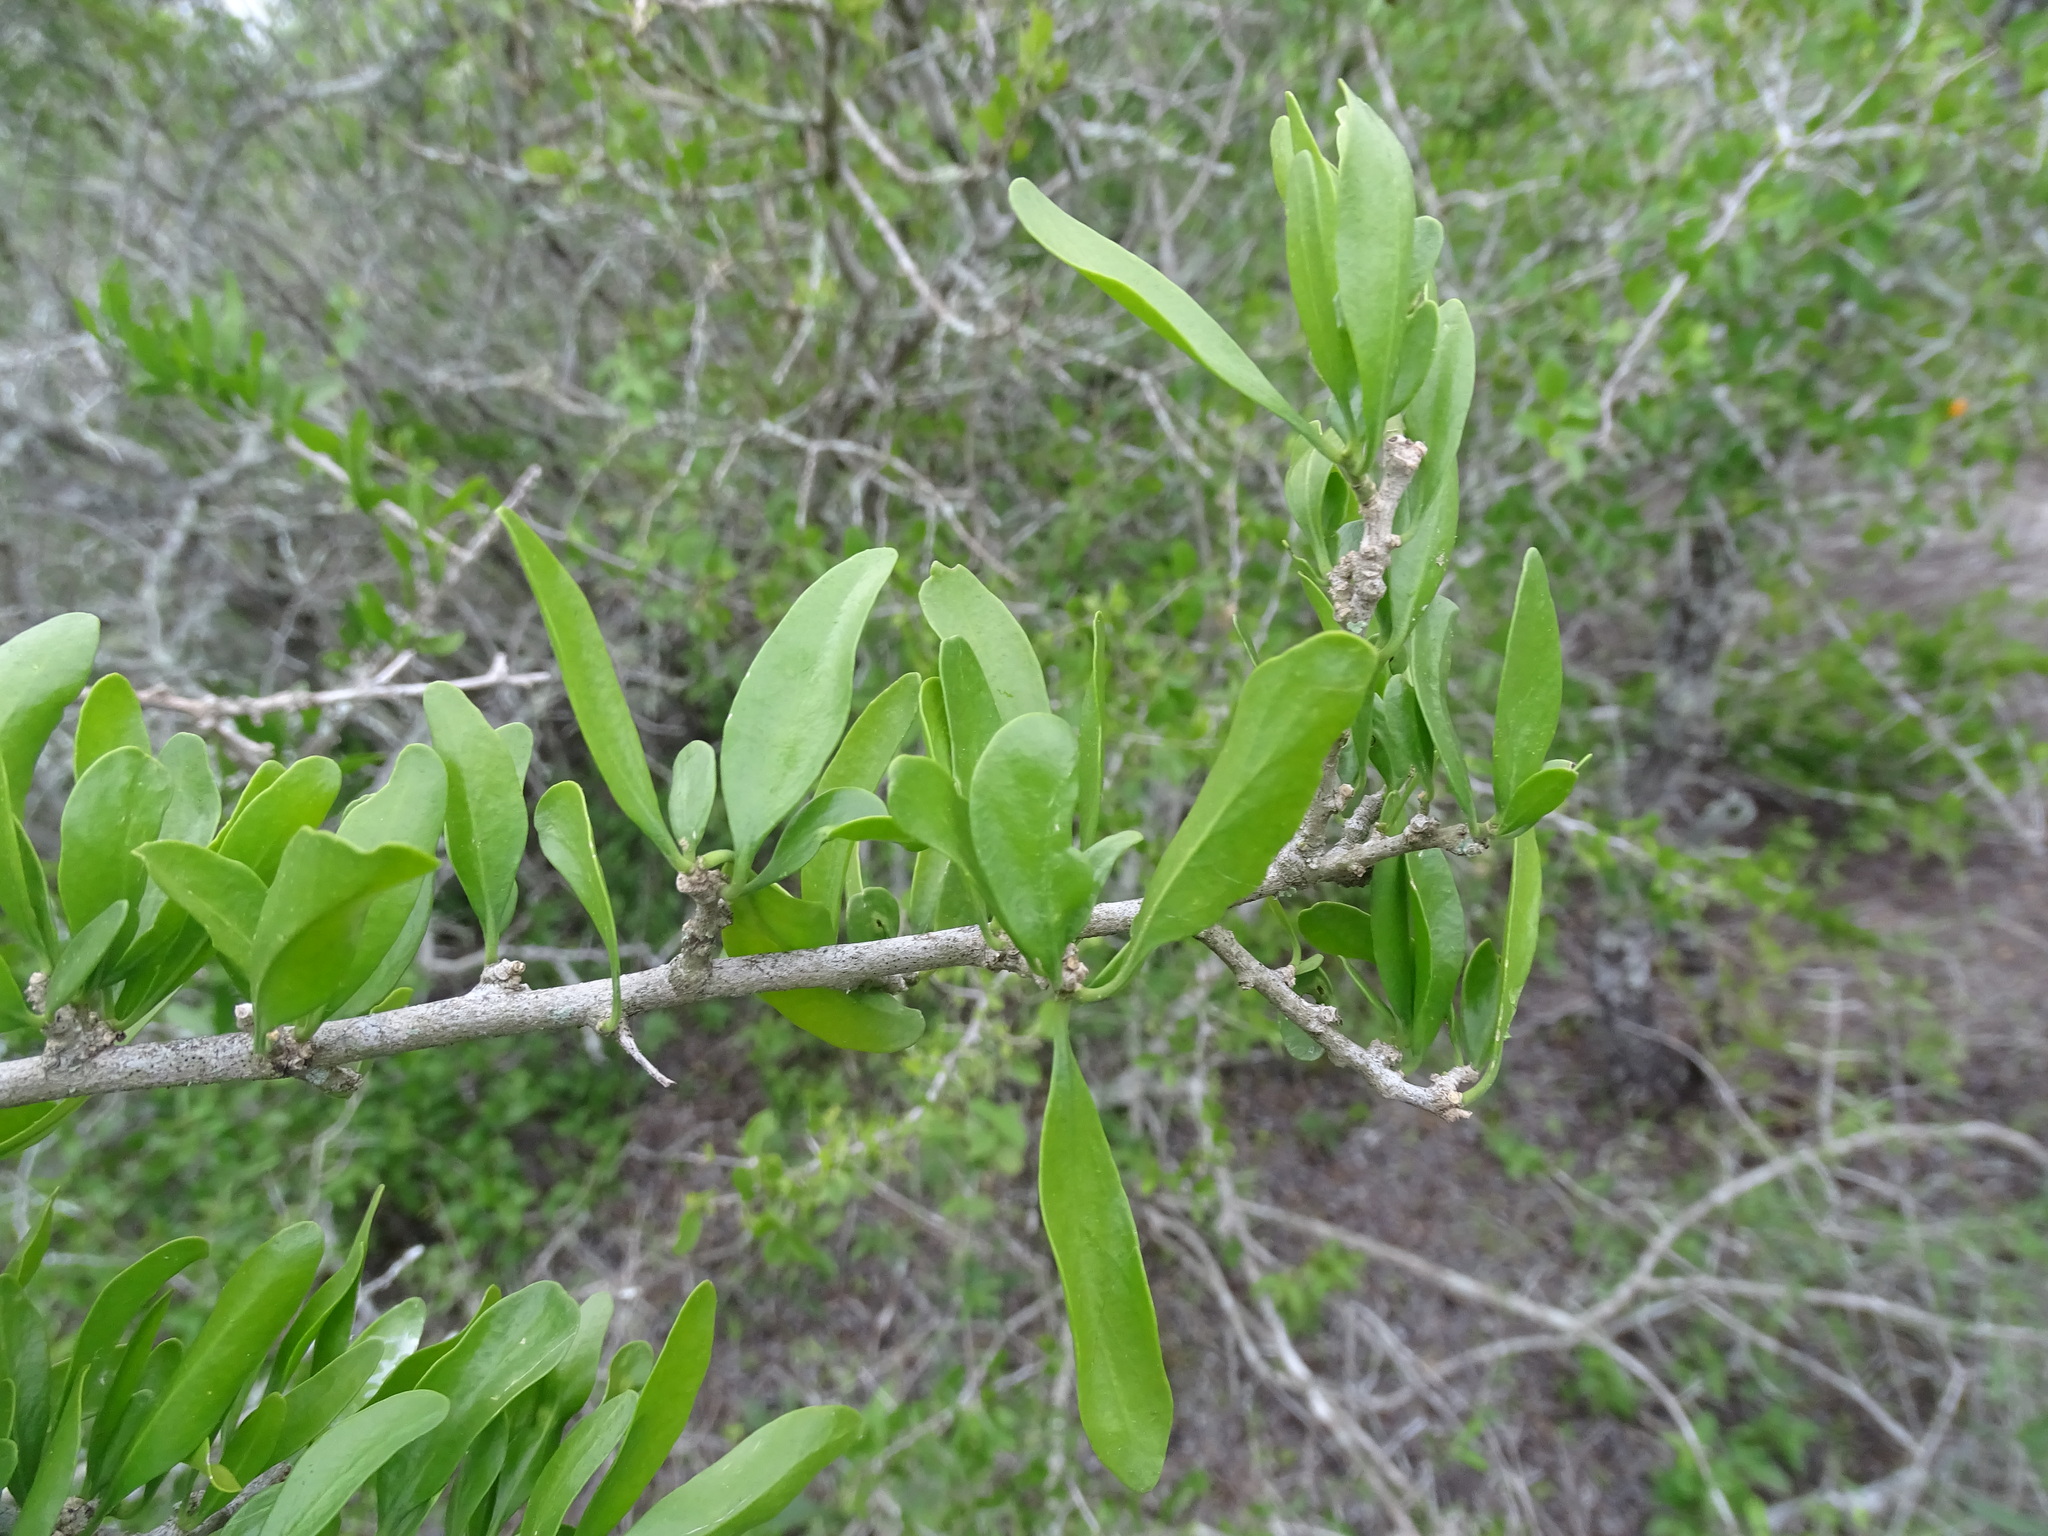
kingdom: Plantae
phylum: Tracheophyta
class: Magnoliopsida
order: Malpighiales
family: Euphorbiaceae
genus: Adelia
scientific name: Adelia vaseyi
